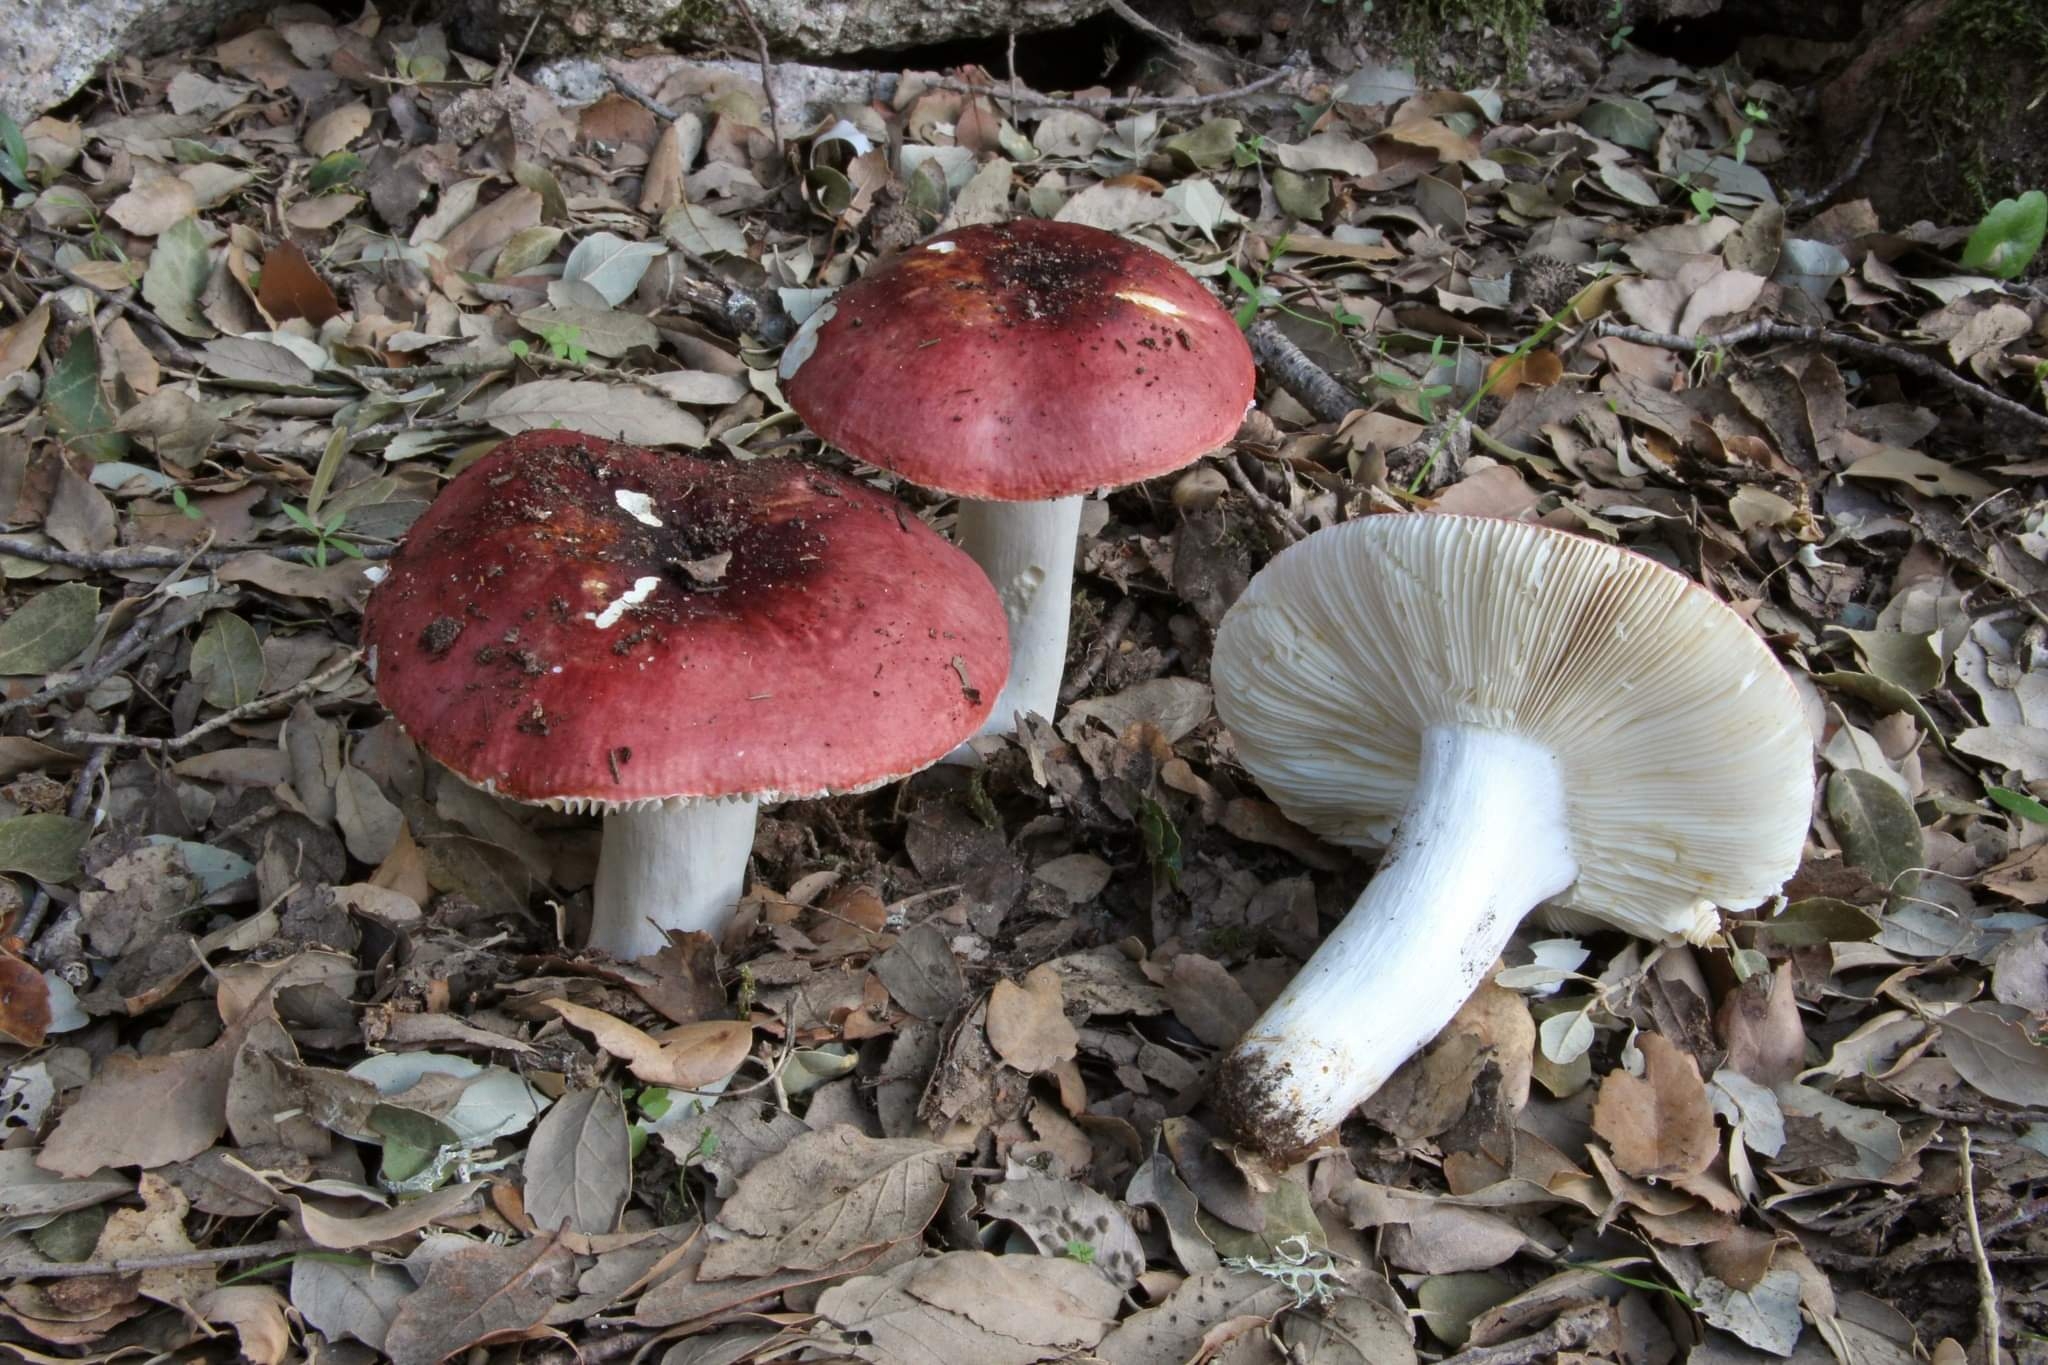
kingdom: Fungi
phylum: Basidiomycota
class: Agaricomycetes
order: Russulales
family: Russulaceae
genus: Russula
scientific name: Russula melliolens
